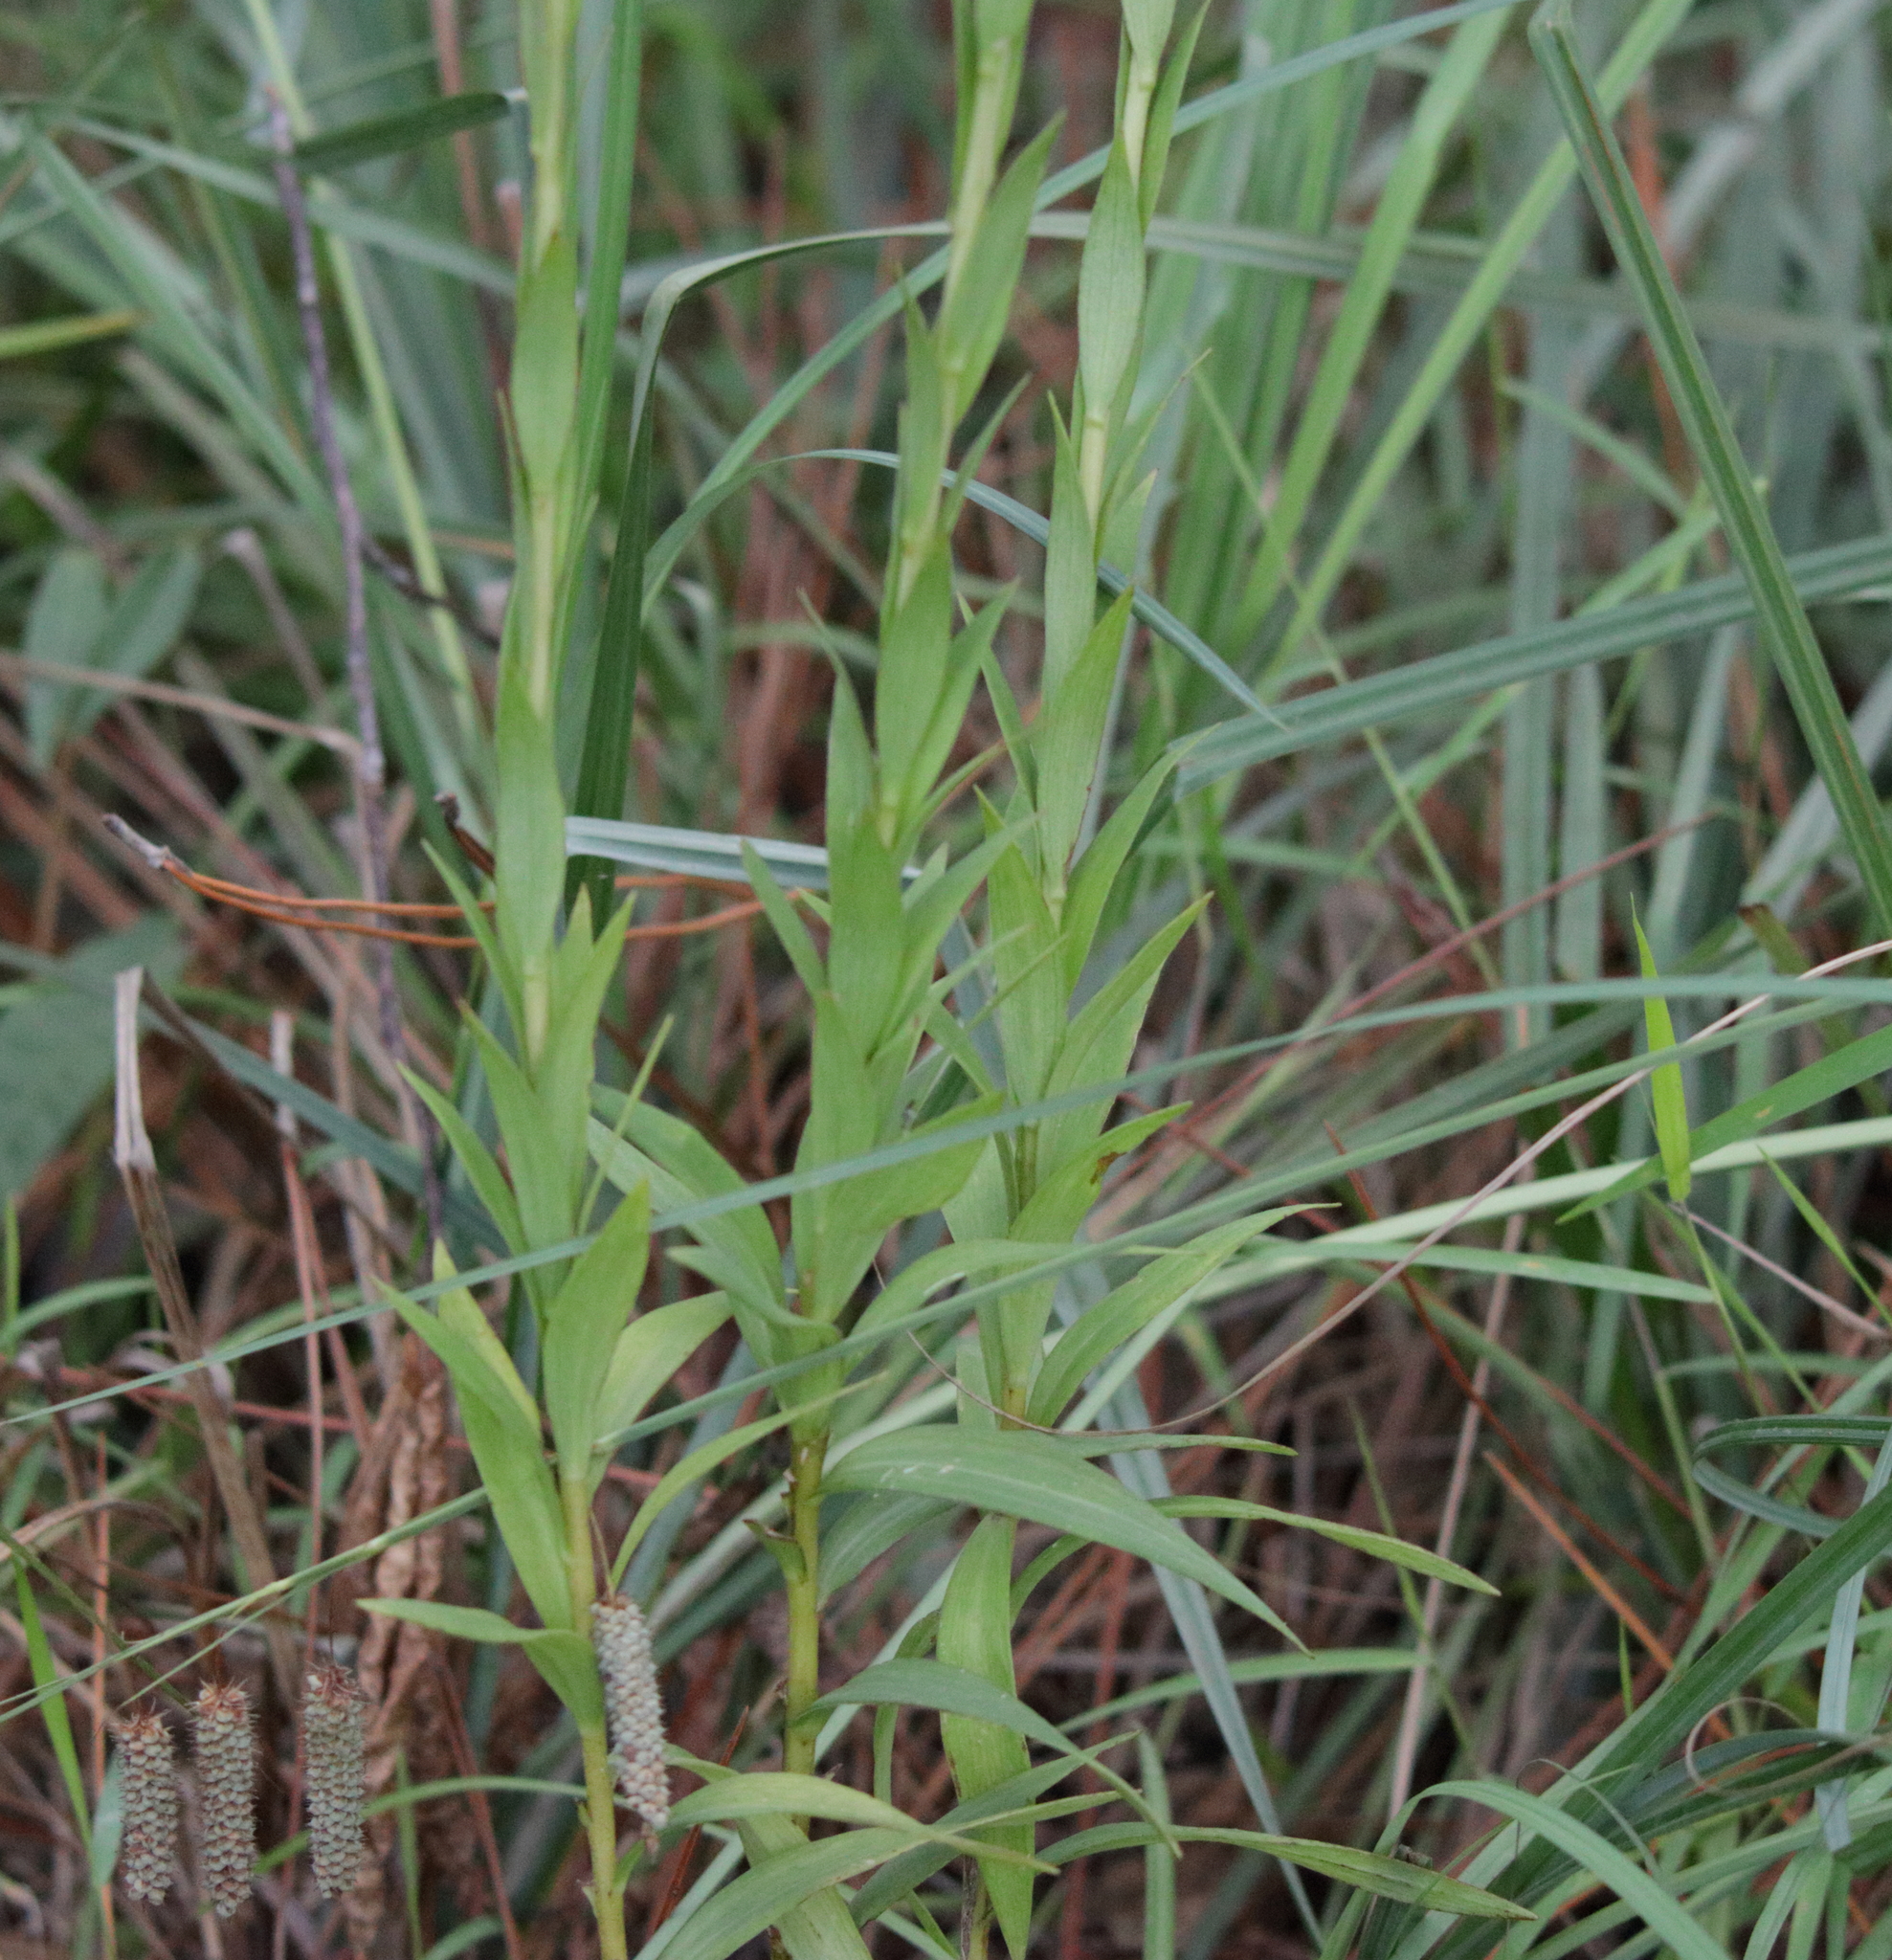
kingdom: Plantae
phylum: Tracheophyta
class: Liliopsida
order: Liliales
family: Liliaceae
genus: Lilium
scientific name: Lilium catesbaei
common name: Catesby's lily
